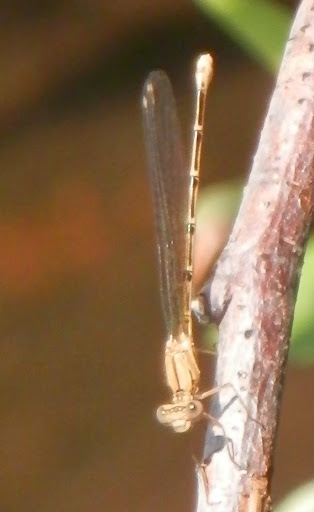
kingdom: Animalia
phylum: Arthropoda
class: Insecta
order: Odonata
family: Coenagrionidae
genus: Argia
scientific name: Argia emma
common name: Emma's dancer
